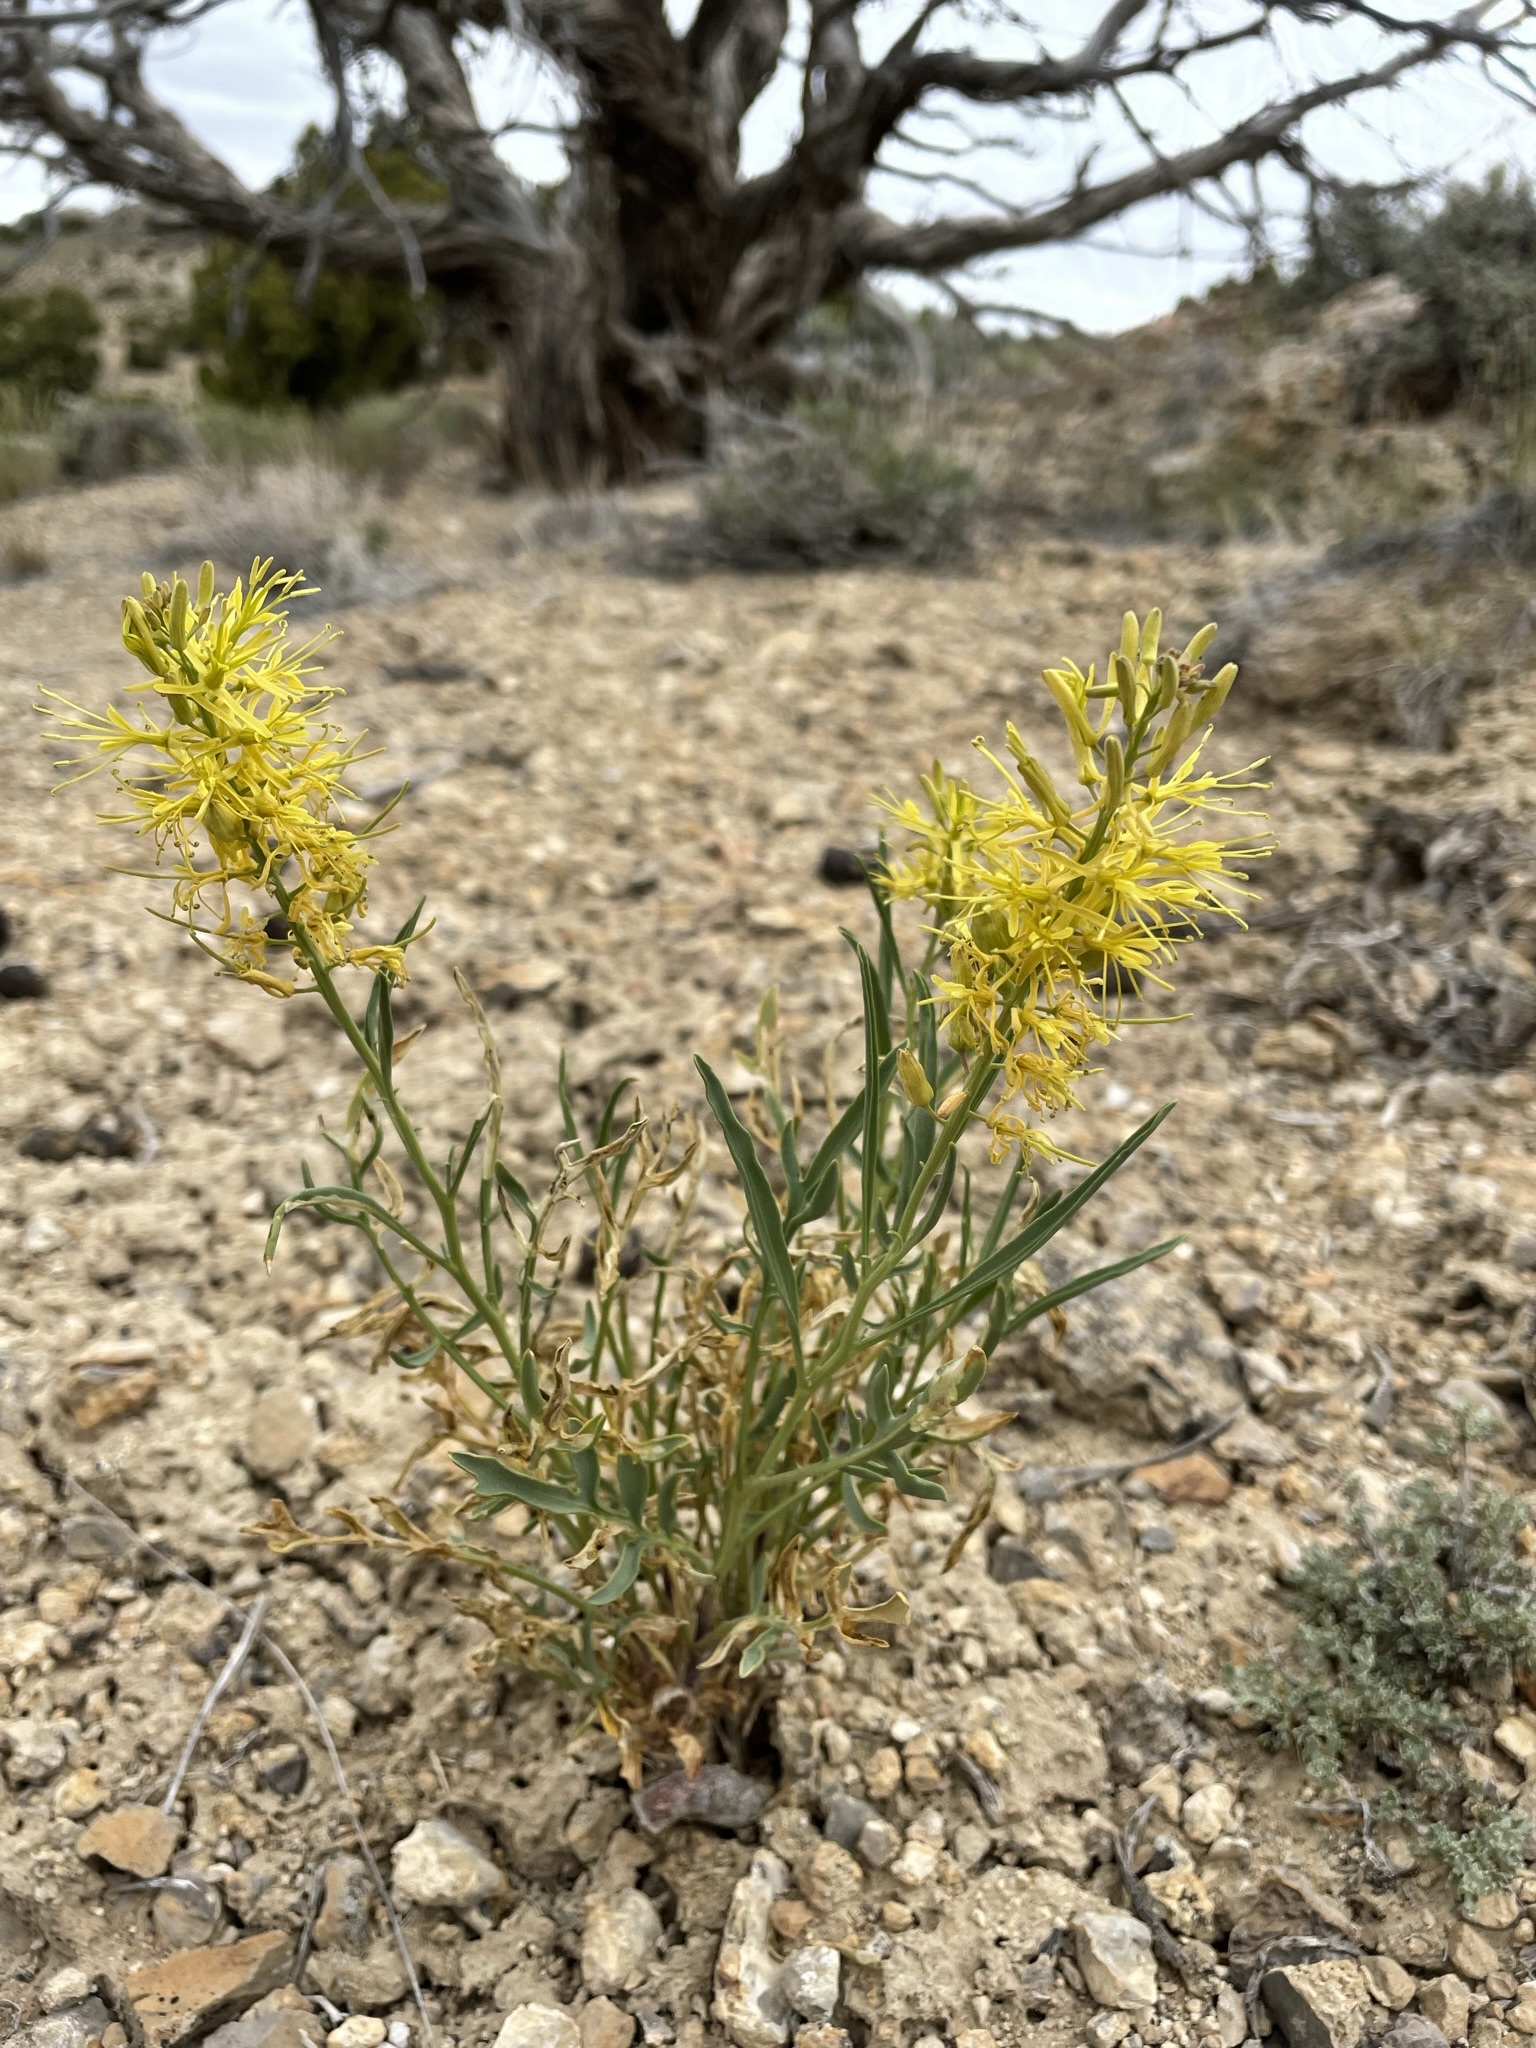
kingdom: Plantae
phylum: Tracheophyta
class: Magnoliopsida
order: Brassicales
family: Brassicaceae
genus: Stanleya
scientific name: Stanleya pinnata
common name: Prince's-plume
